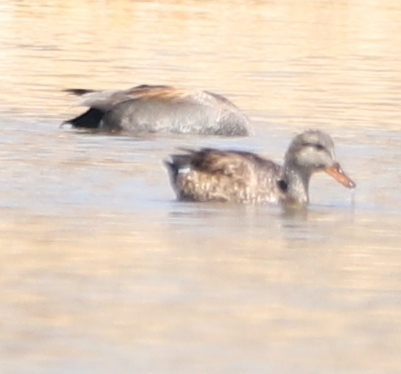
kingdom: Animalia
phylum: Chordata
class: Aves
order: Anseriformes
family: Anatidae
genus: Mareca
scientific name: Mareca strepera
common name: Gadwall
